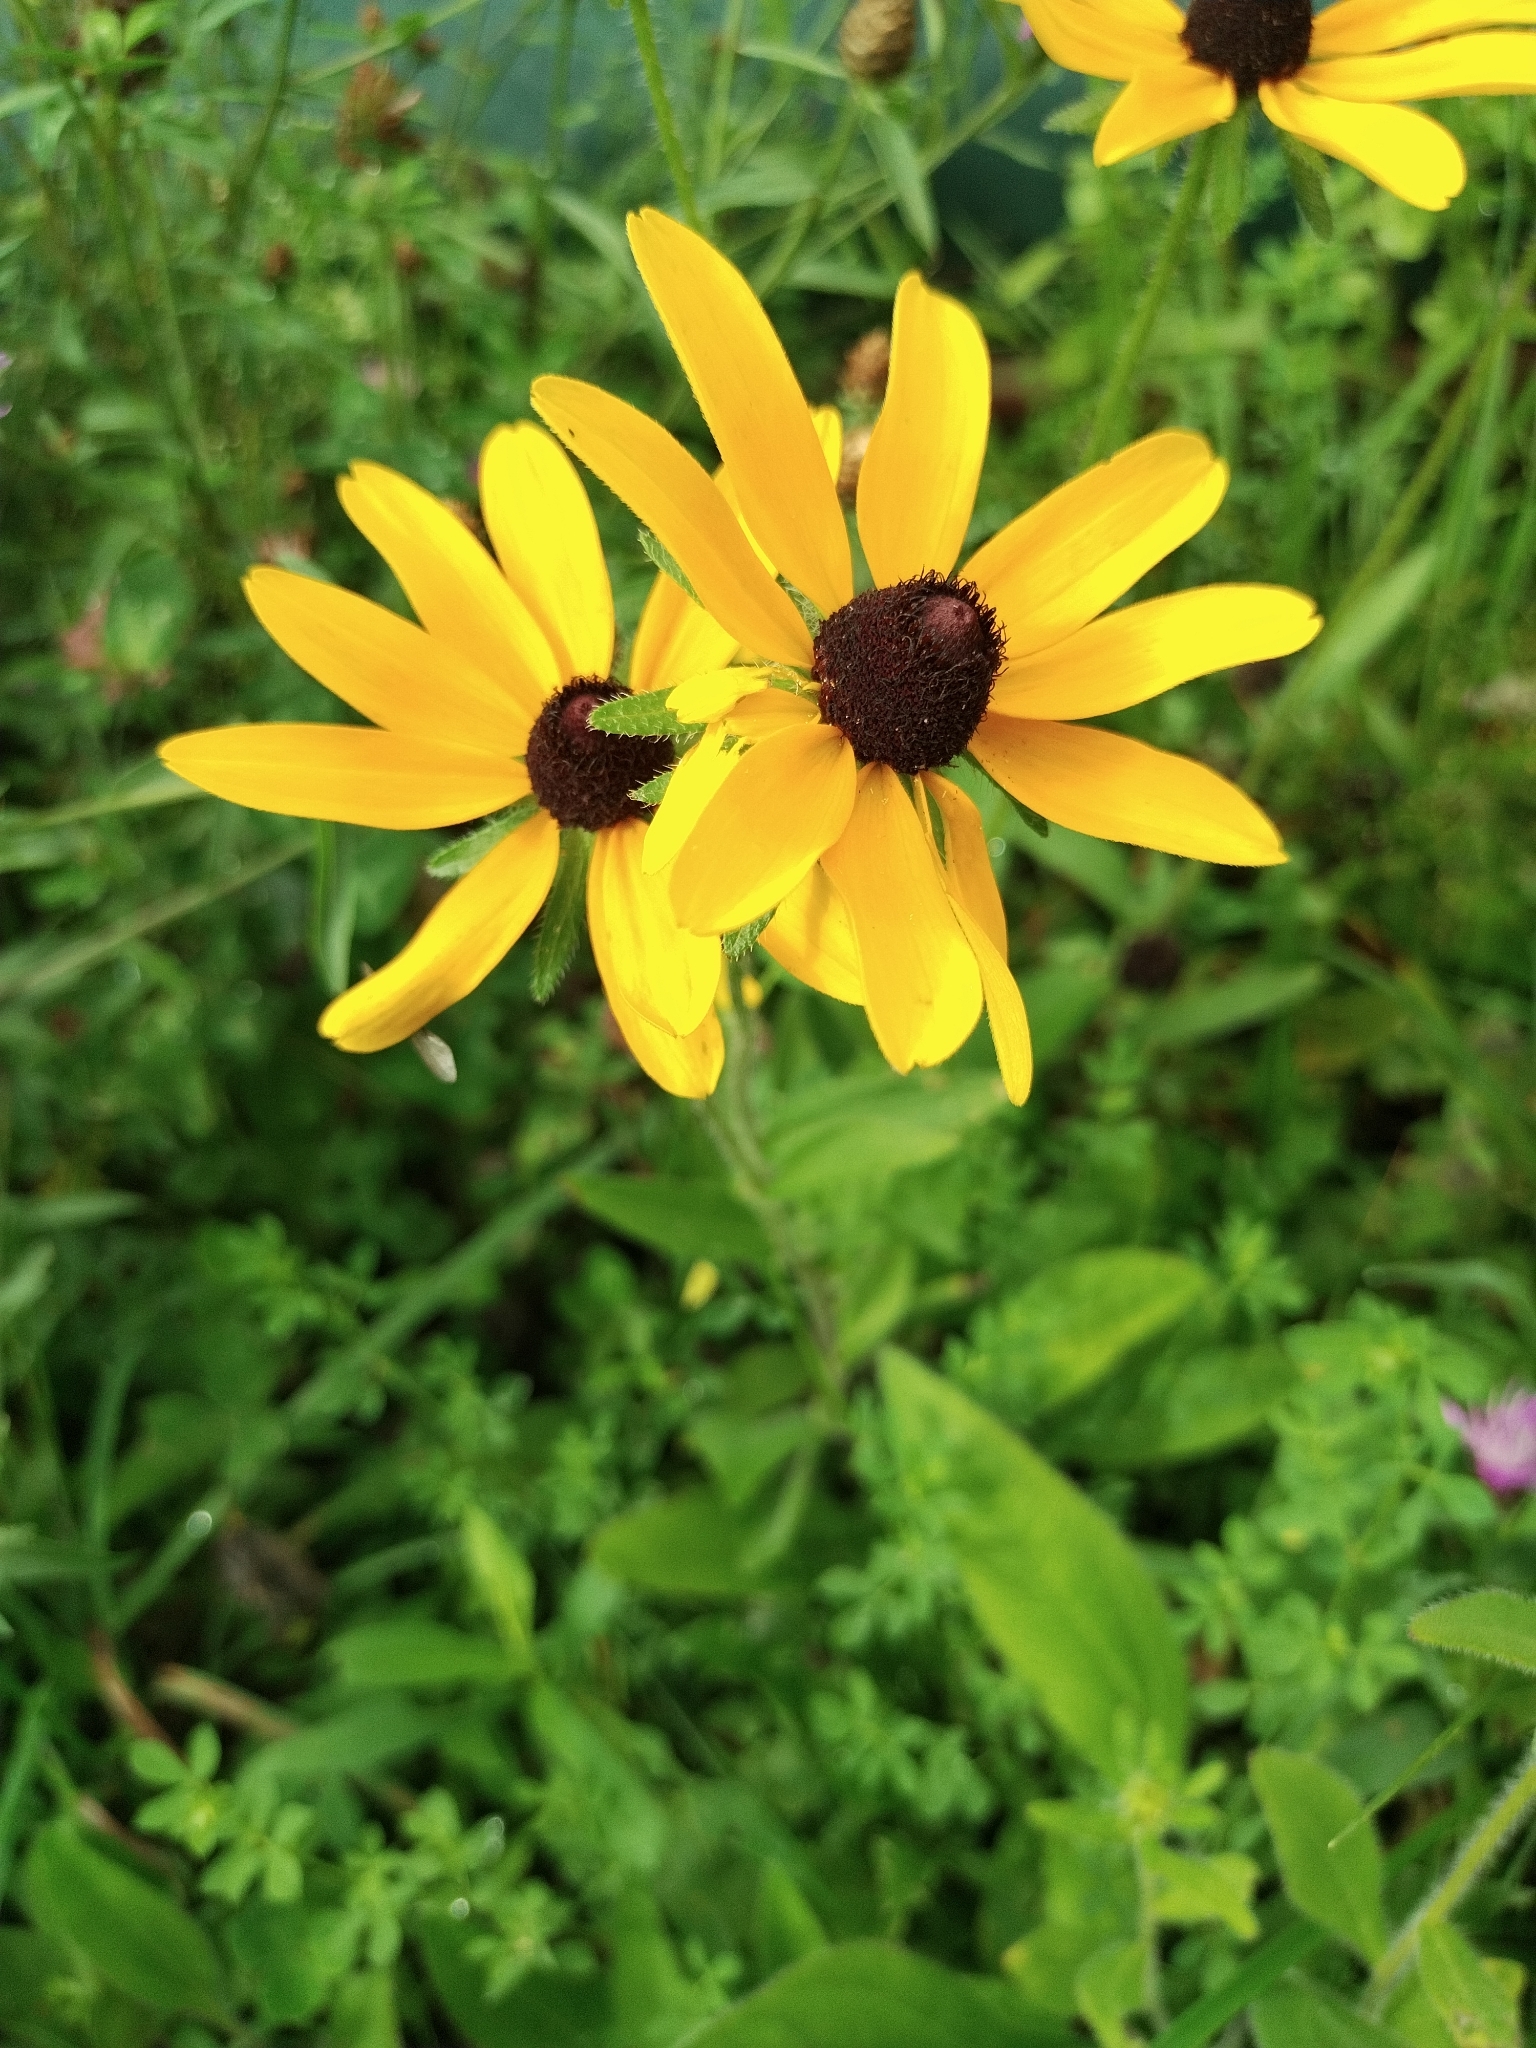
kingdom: Plantae
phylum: Tracheophyta
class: Magnoliopsida
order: Asterales
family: Asteraceae
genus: Rudbeckia
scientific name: Rudbeckia hirta
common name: Black-eyed-susan
